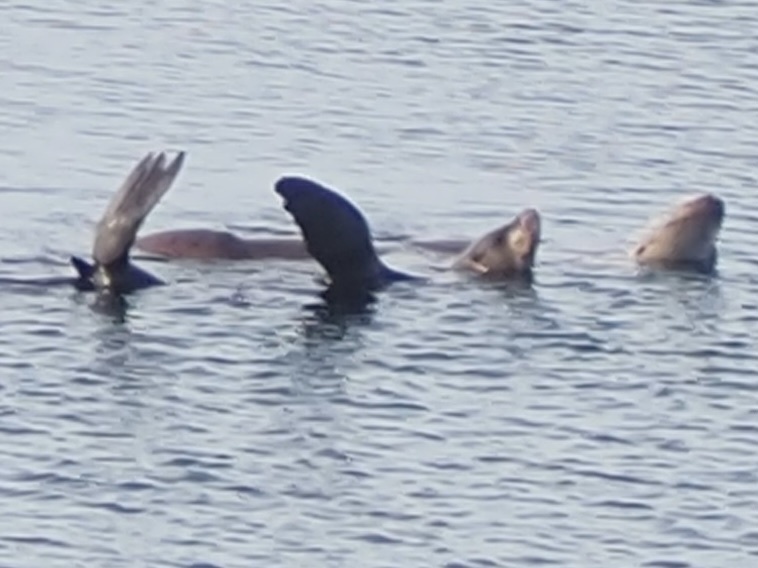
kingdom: Animalia
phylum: Chordata
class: Mammalia
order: Carnivora
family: Otariidae
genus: Zalophus
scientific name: Zalophus californianus
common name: California sea lion
